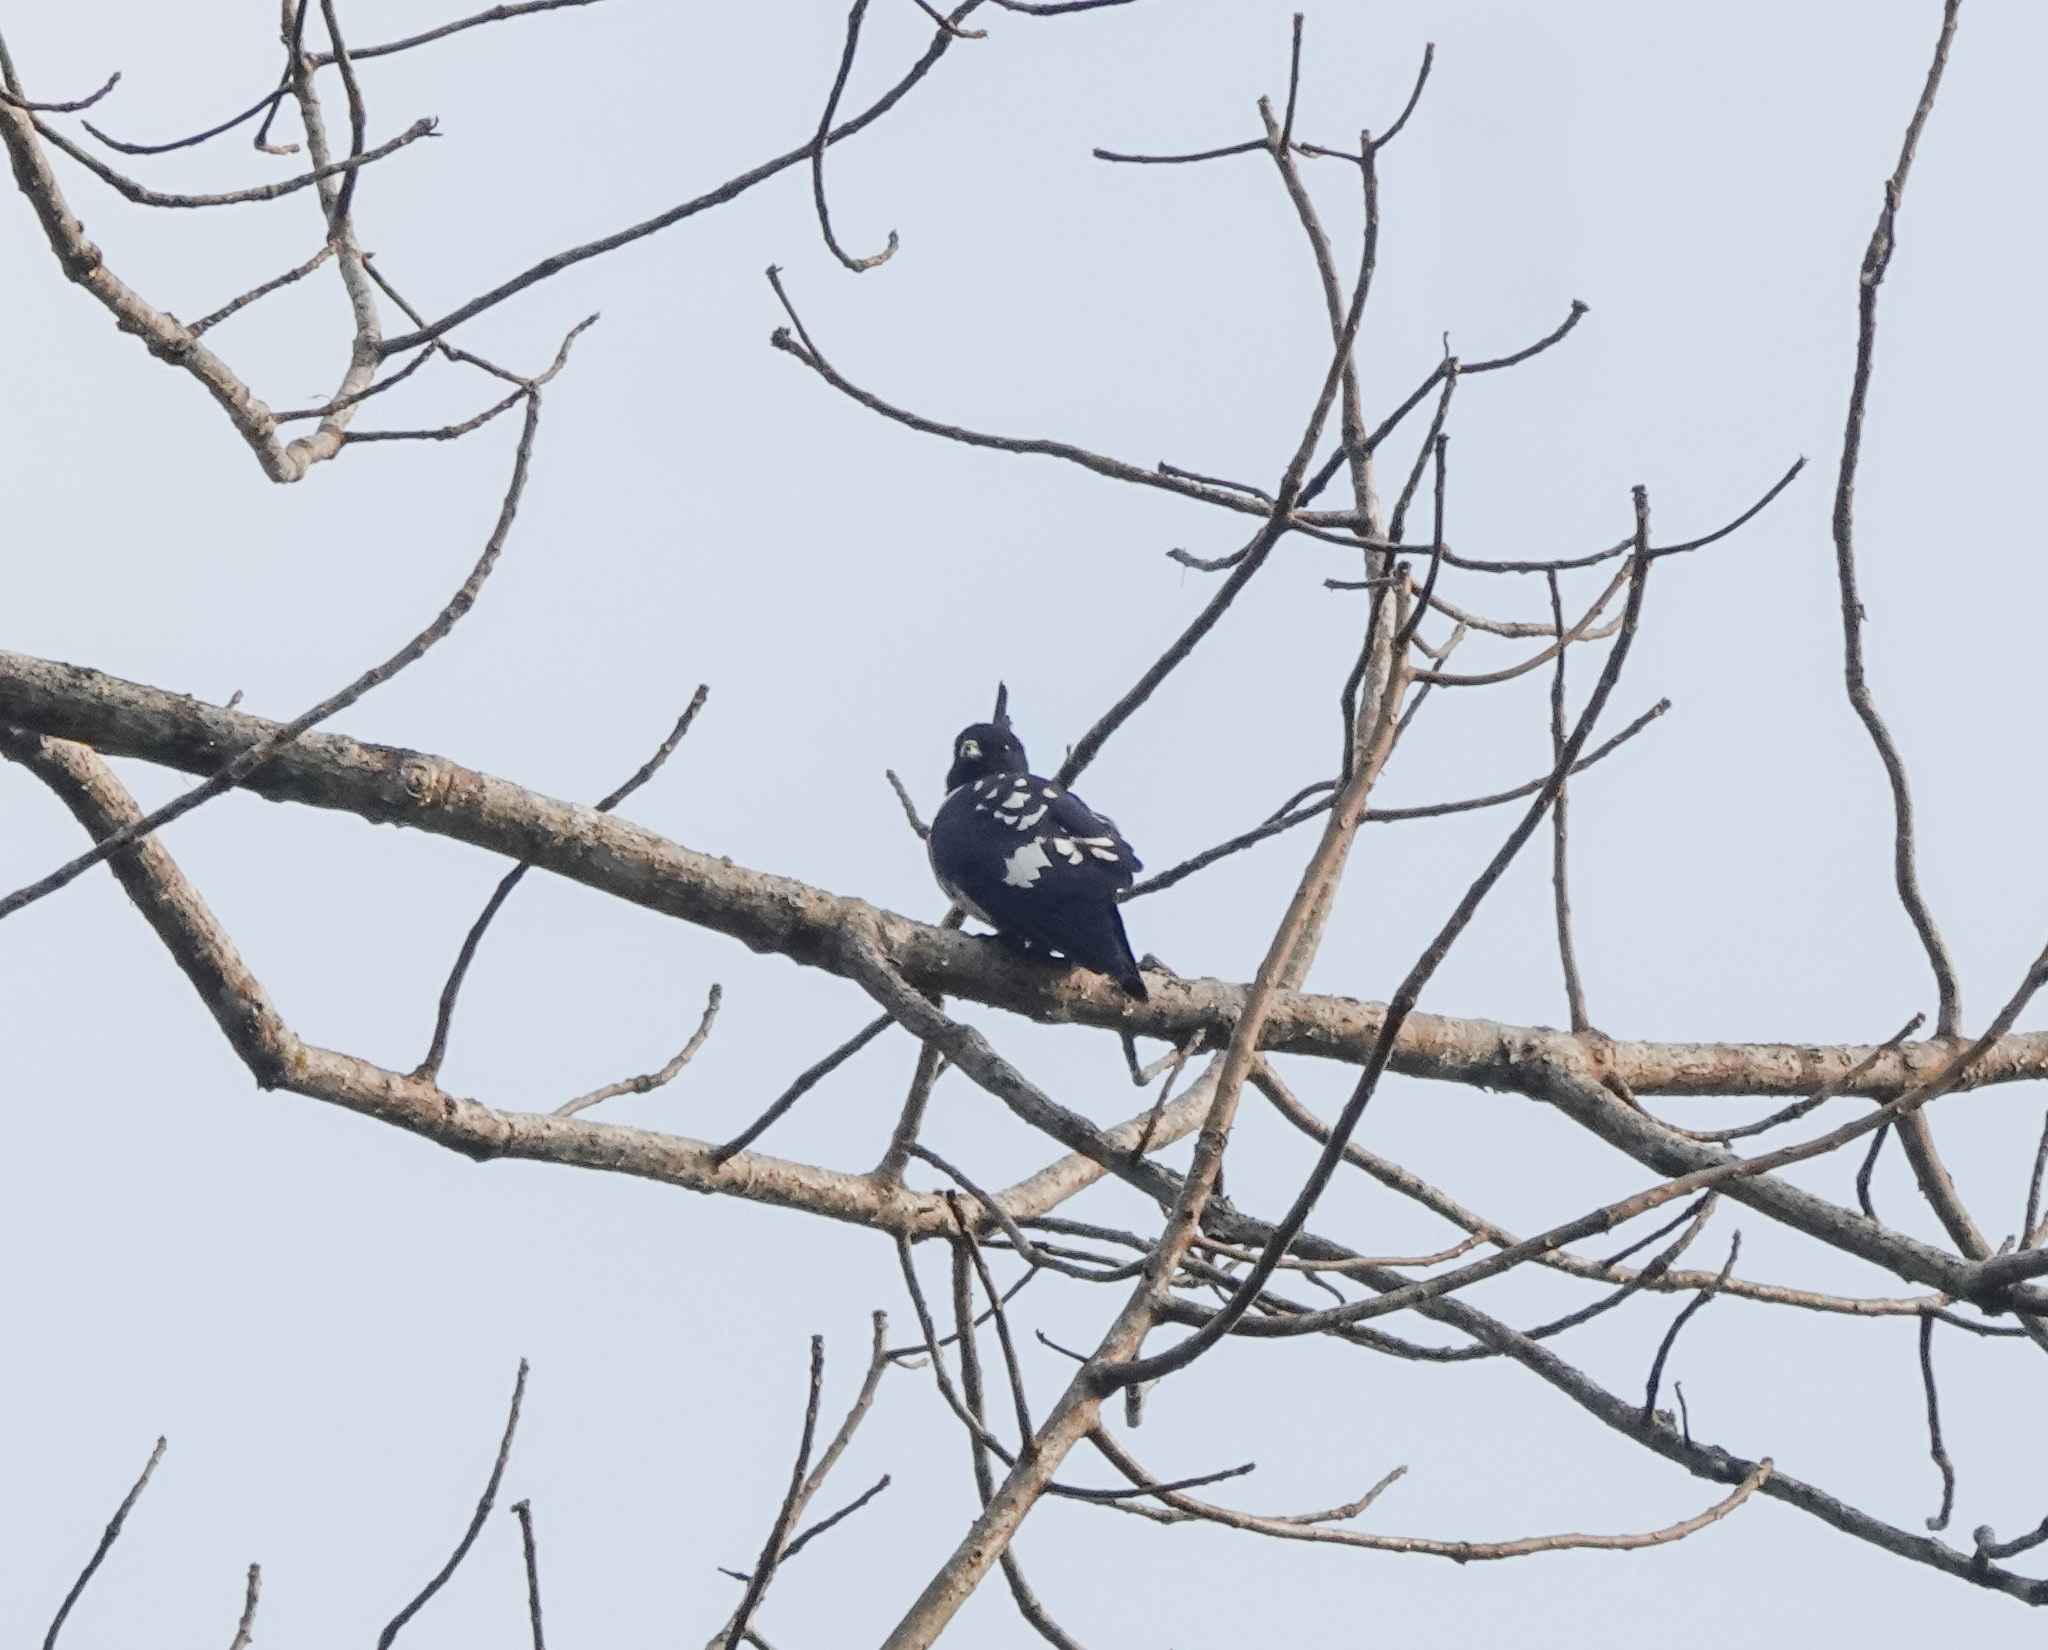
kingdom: Animalia
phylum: Chordata
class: Aves
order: Accipitriformes
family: Accipitridae
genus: Aviceda
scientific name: Aviceda leuphotes
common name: Black baza
